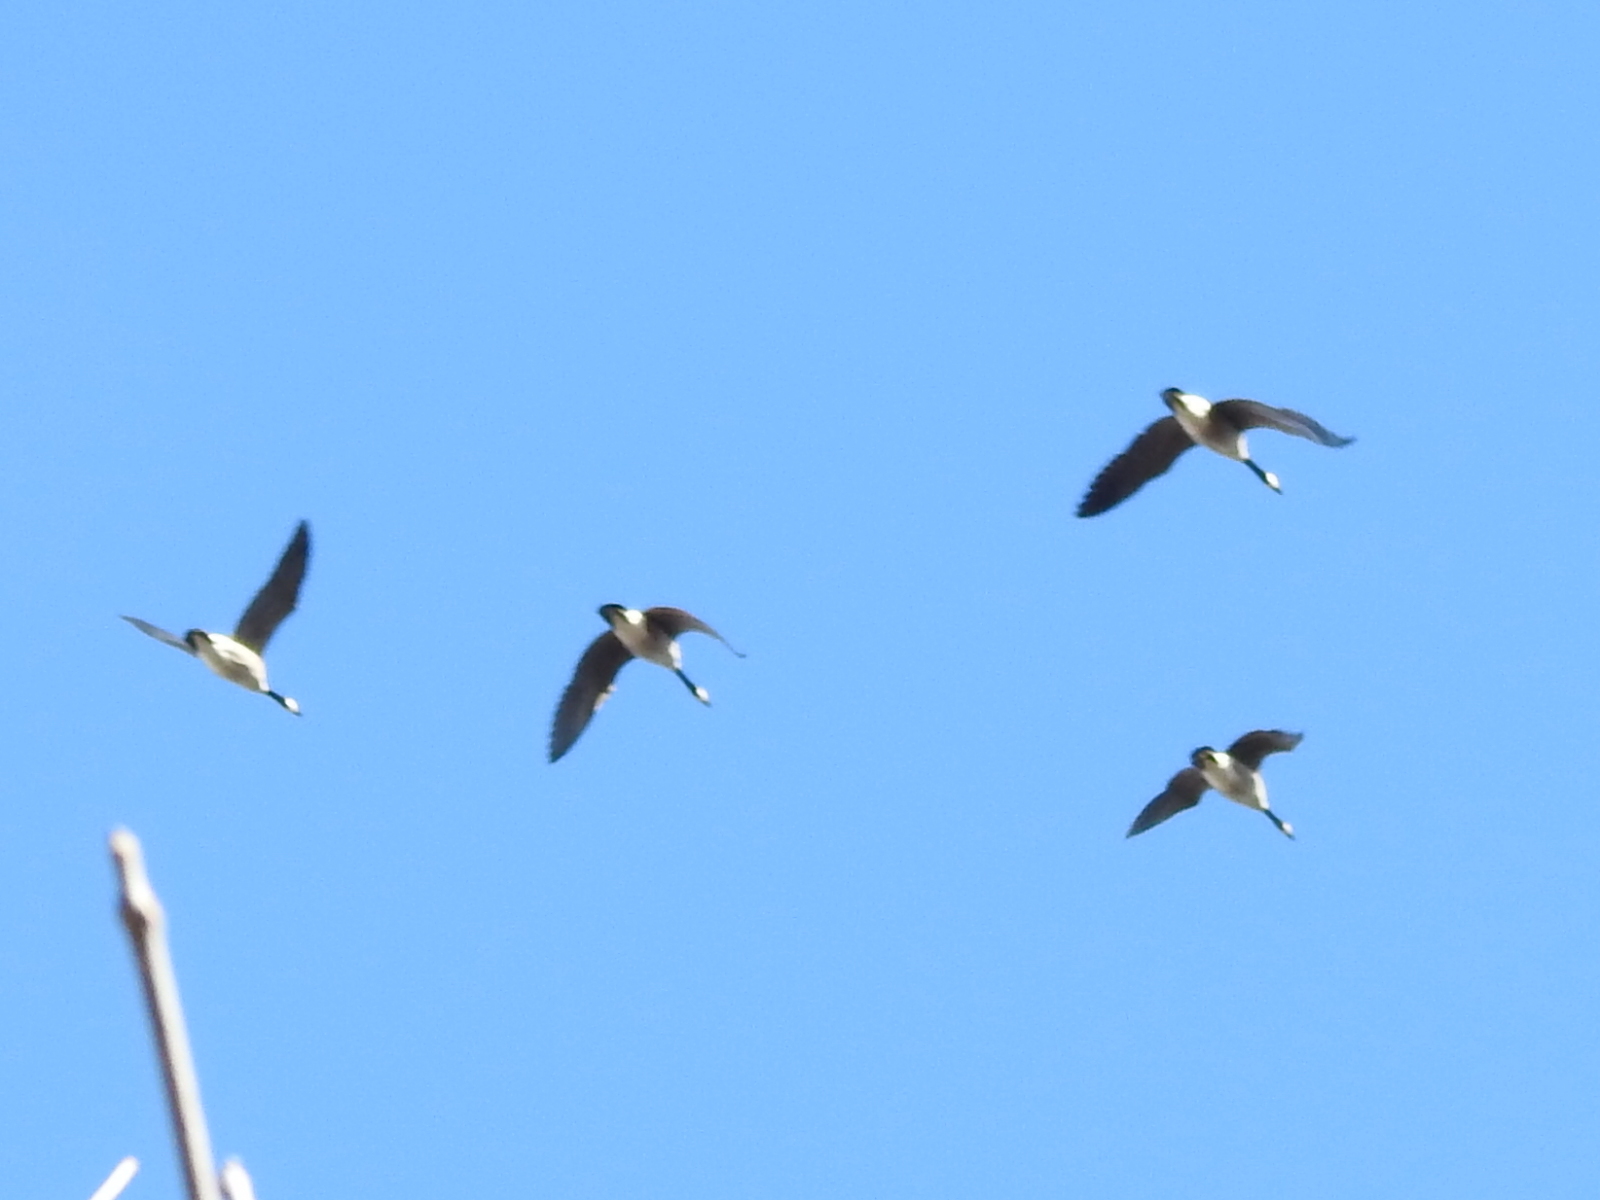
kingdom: Animalia
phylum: Chordata
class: Aves
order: Anseriformes
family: Anatidae
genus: Branta
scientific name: Branta canadensis
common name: Canada goose
